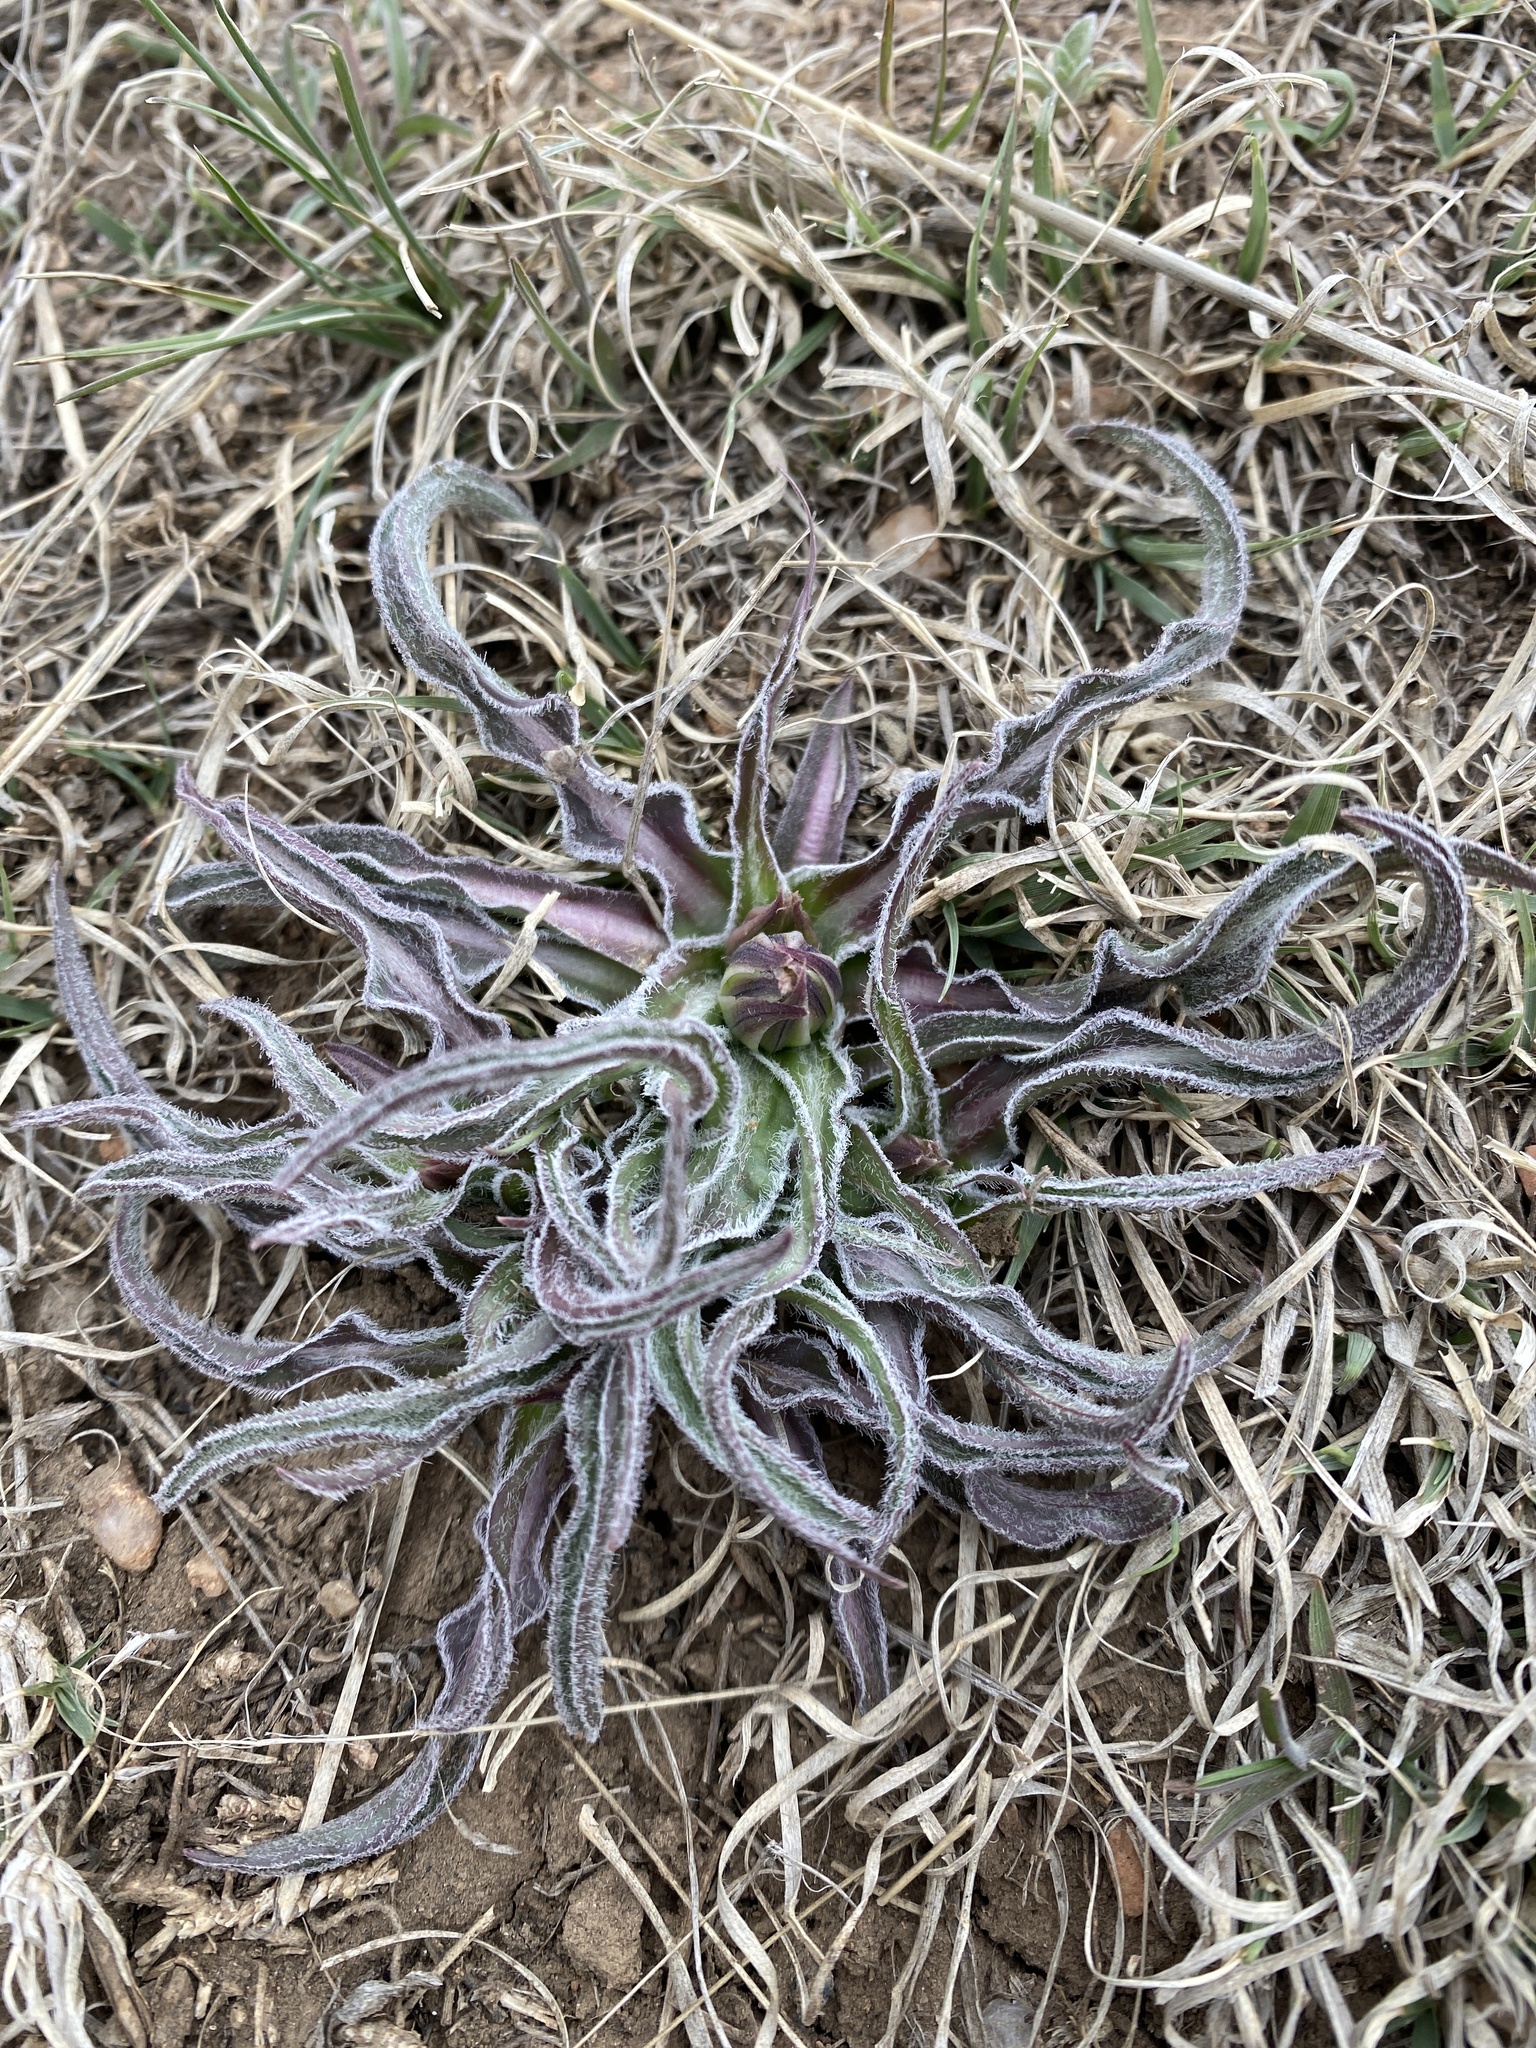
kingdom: Plantae
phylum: Tracheophyta
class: Magnoliopsida
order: Asterales
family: Asteraceae
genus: Microseris
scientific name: Microseris cuspidata
